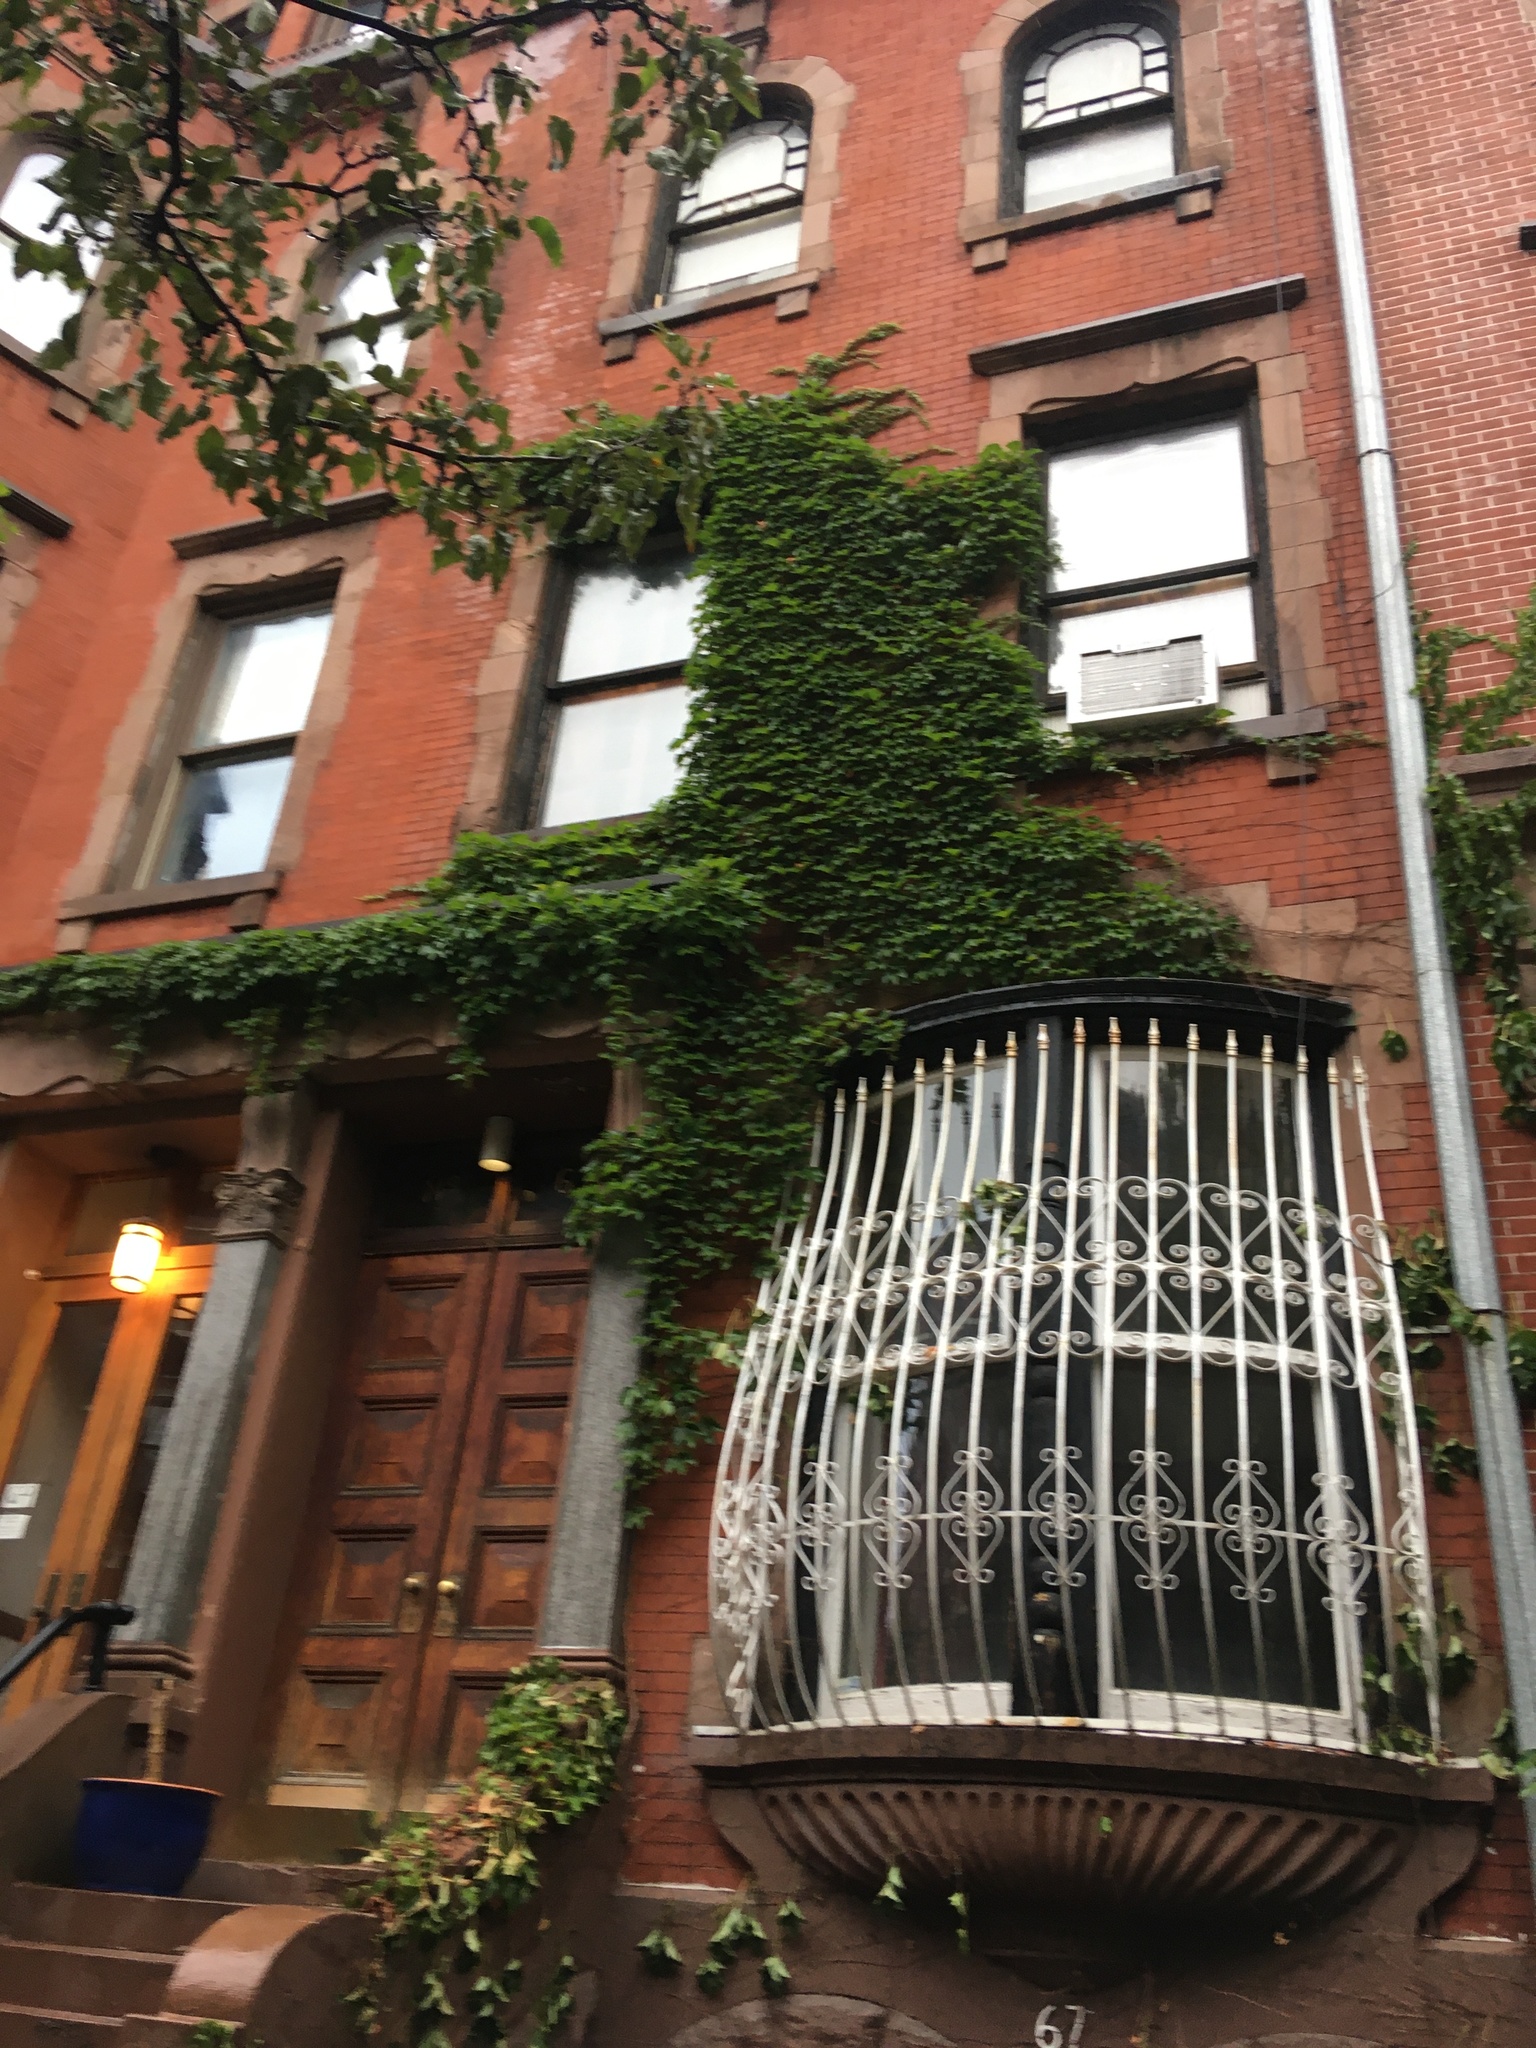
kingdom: Plantae
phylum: Tracheophyta
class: Magnoliopsida
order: Vitales
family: Vitaceae
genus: Parthenocissus
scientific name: Parthenocissus tricuspidata
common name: Boston ivy
